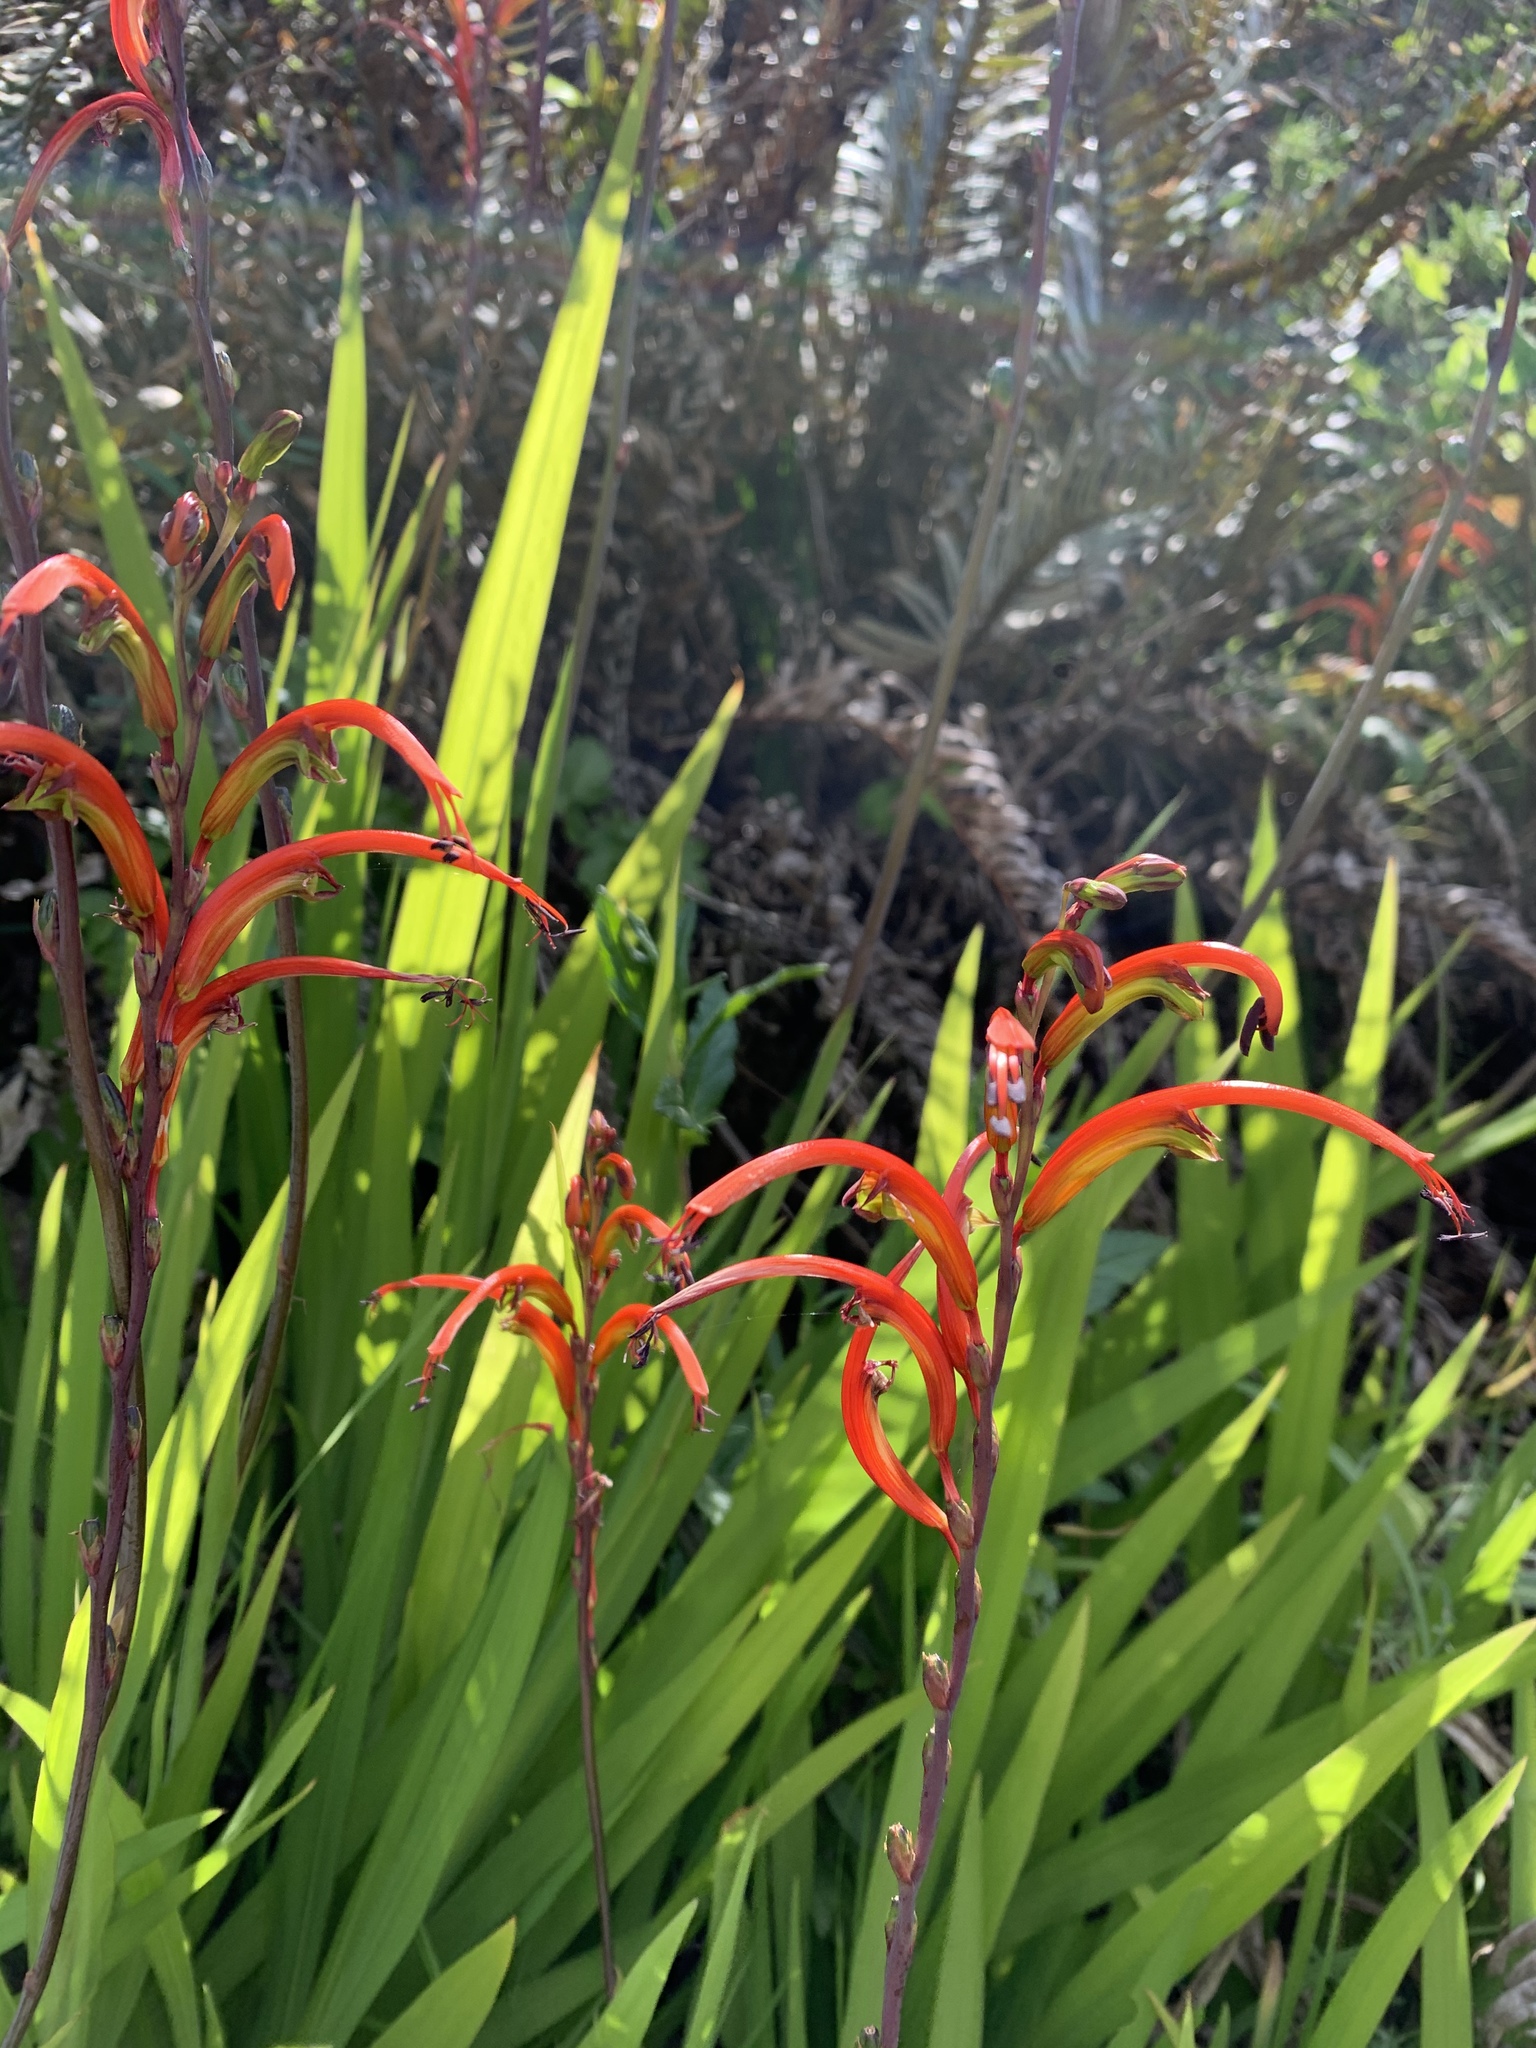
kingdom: Plantae
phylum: Tracheophyta
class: Liliopsida
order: Asparagales
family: Iridaceae
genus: Chasmanthe
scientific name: Chasmanthe bicolor
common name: Bicolor cobra lily
